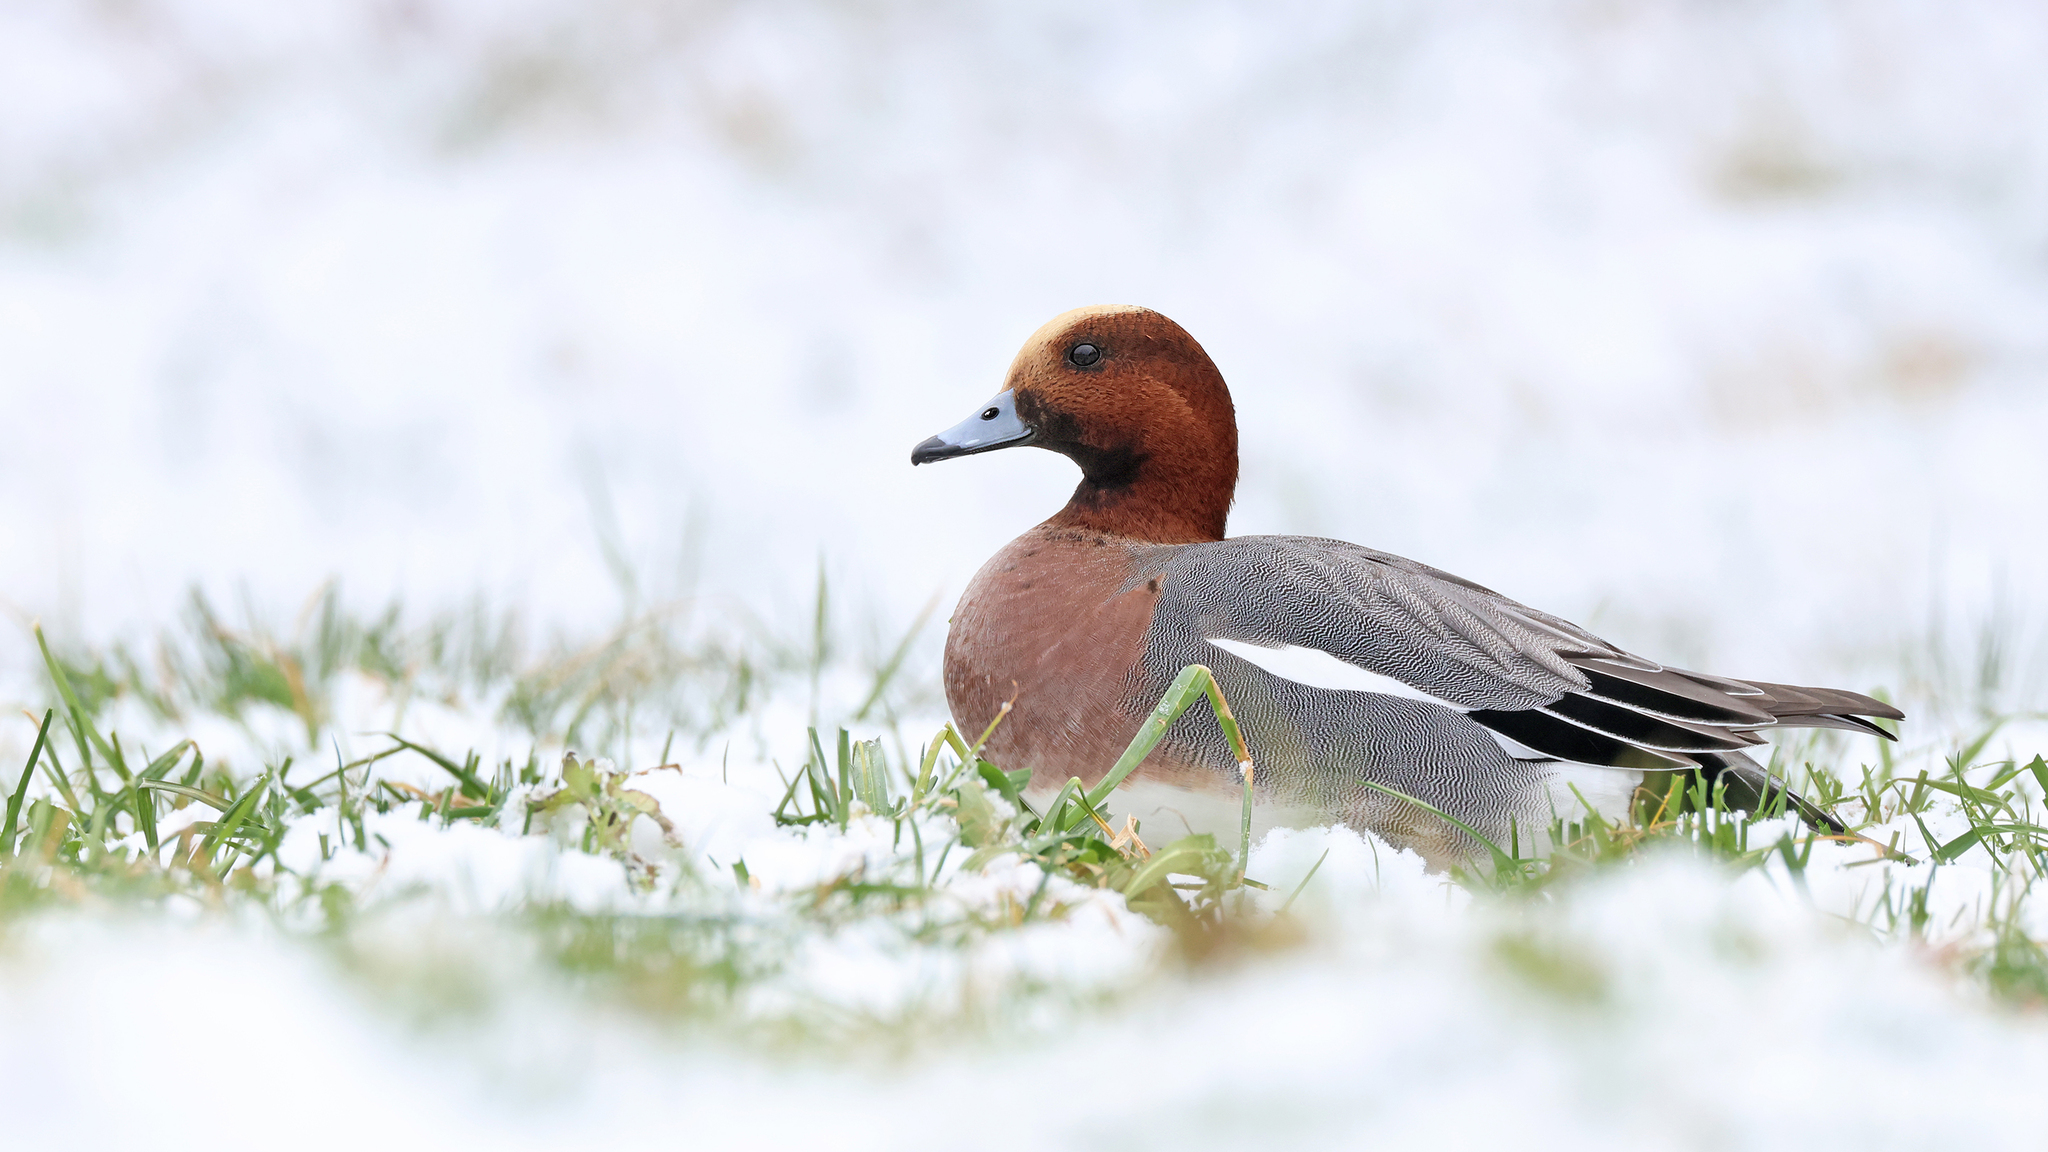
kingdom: Animalia
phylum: Chordata
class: Aves
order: Anseriformes
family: Anatidae
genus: Mareca
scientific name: Mareca penelope
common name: Eurasian wigeon
